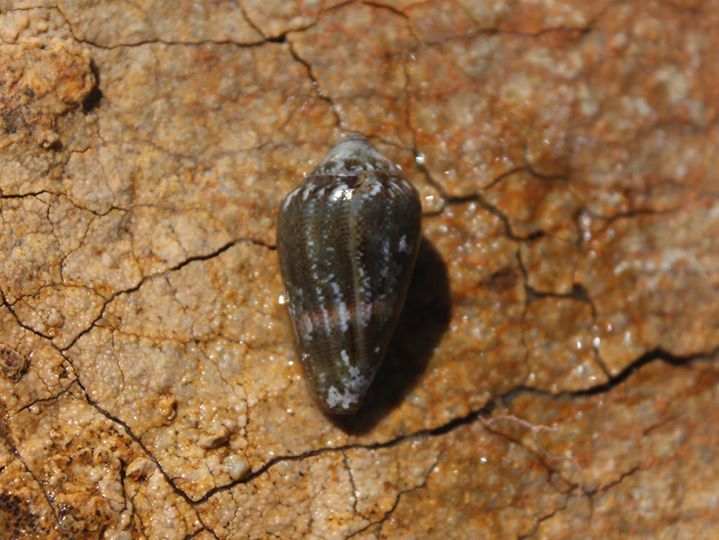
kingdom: Animalia
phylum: Mollusca
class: Gastropoda
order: Neogastropoda
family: Conidae
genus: Conus
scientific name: Conus ventricosus
